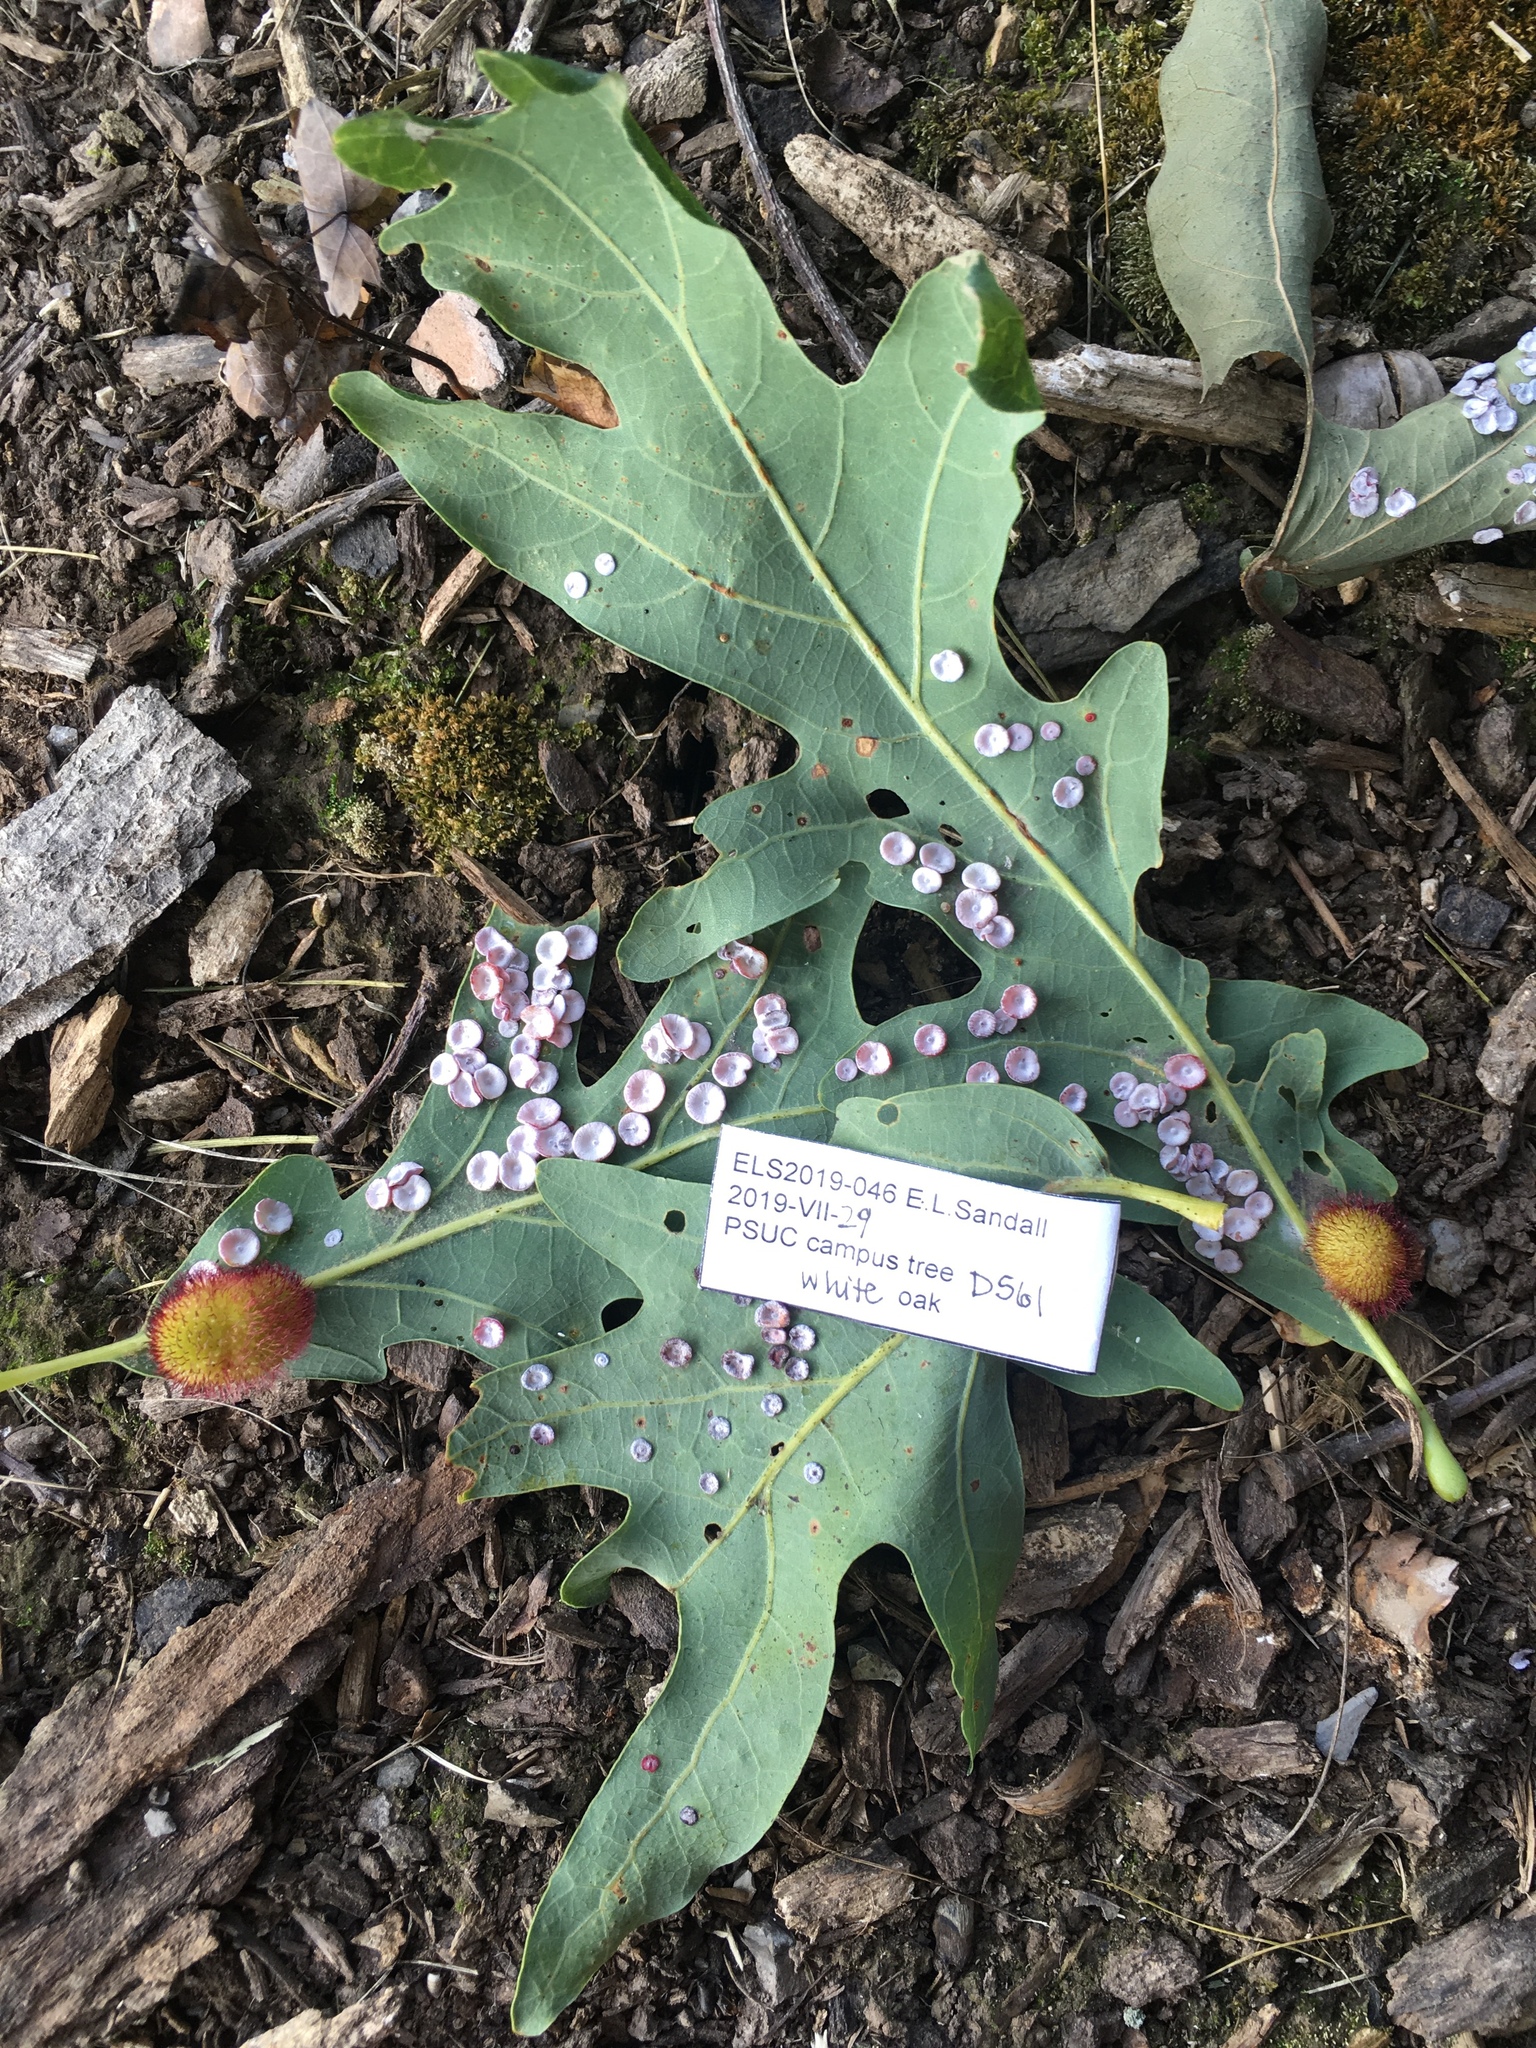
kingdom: Animalia
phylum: Arthropoda
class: Insecta
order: Hymenoptera
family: Cynipidae
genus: Phylloteras
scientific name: Phylloteras poculum
